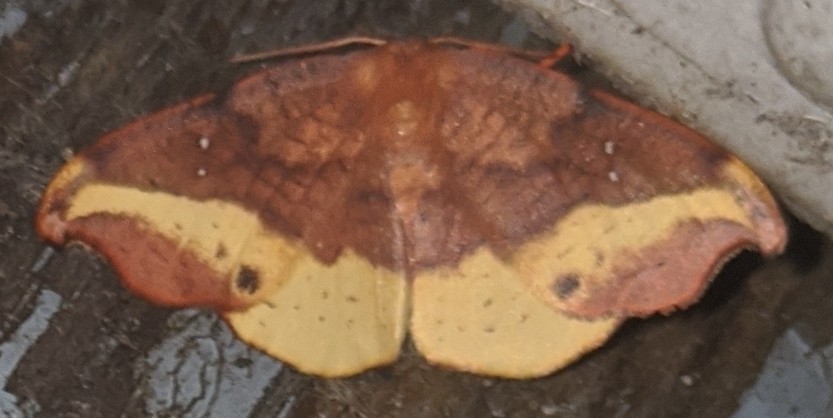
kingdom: Animalia
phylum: Arthropoda
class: Insecta
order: Lepidoptera
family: Drepanidae
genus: Oreta
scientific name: Oreta rosea
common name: Rose hooktip
